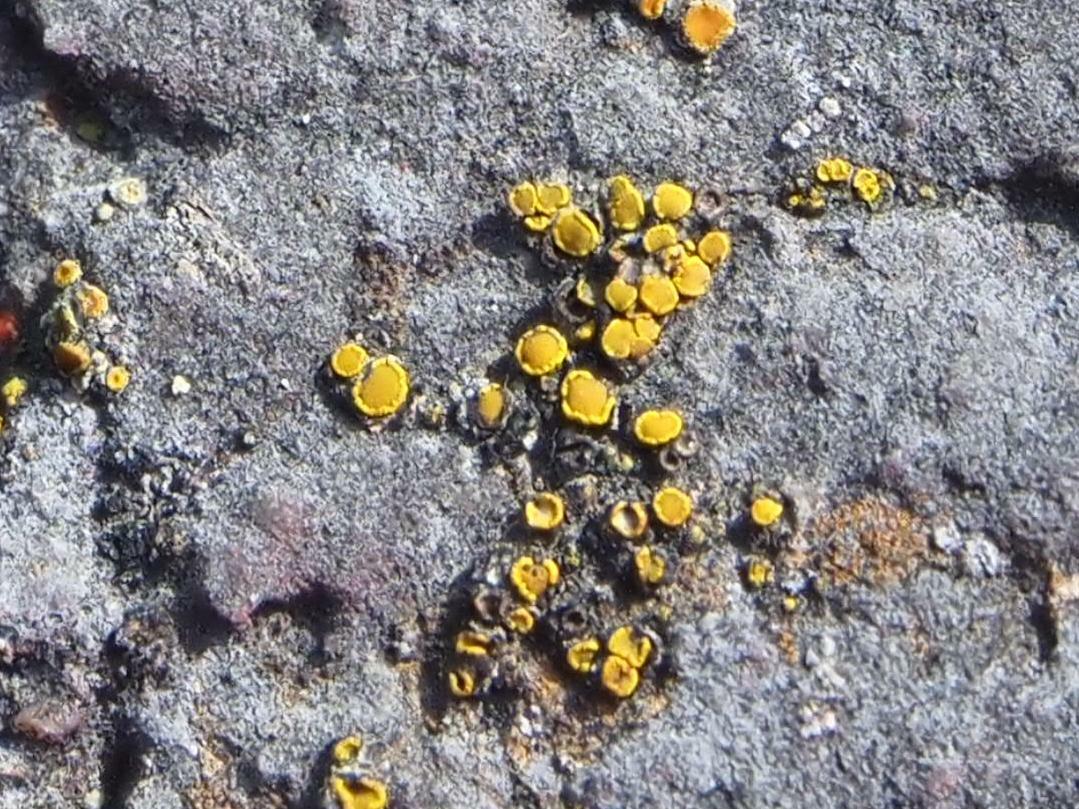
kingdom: Fungi
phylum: Ascomycota
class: Candelariomycetes
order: Candelariales
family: Candelariaceae
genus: Candelariella
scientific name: Candelariella aurella
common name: Hidden goldspeck lichen
